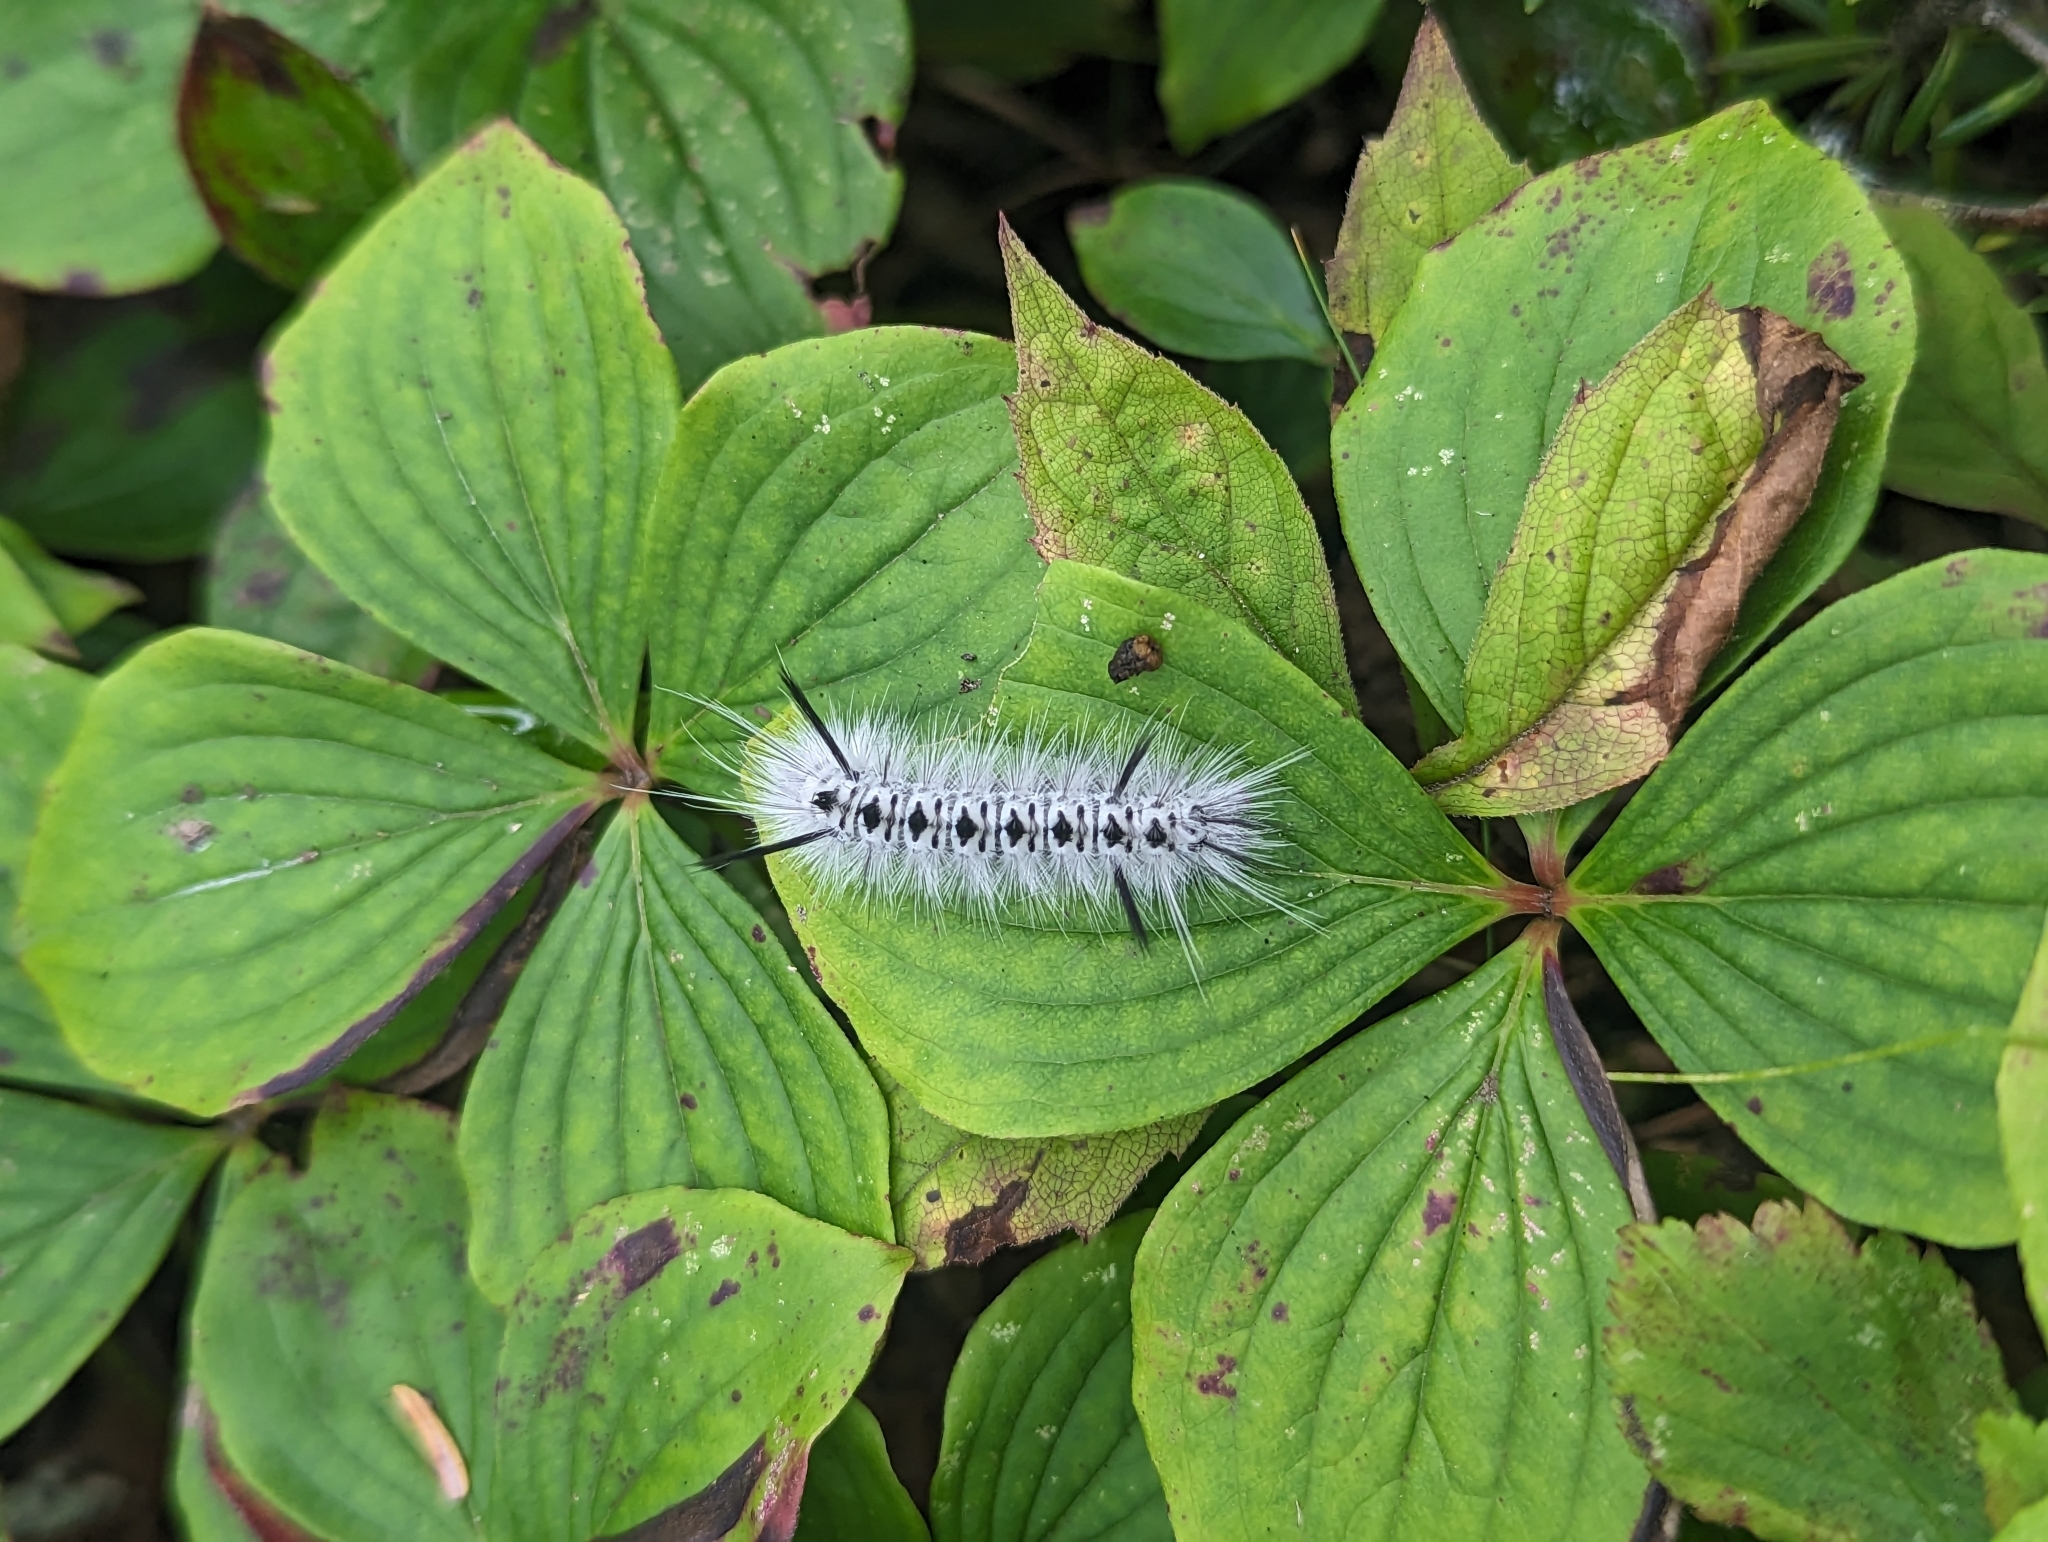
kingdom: Animalia
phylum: Arthropoda
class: Insecta
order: Lepidoptera
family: Erebidae
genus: Lophocampa
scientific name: Lophocampa caryae
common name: Hickory tussock moth
